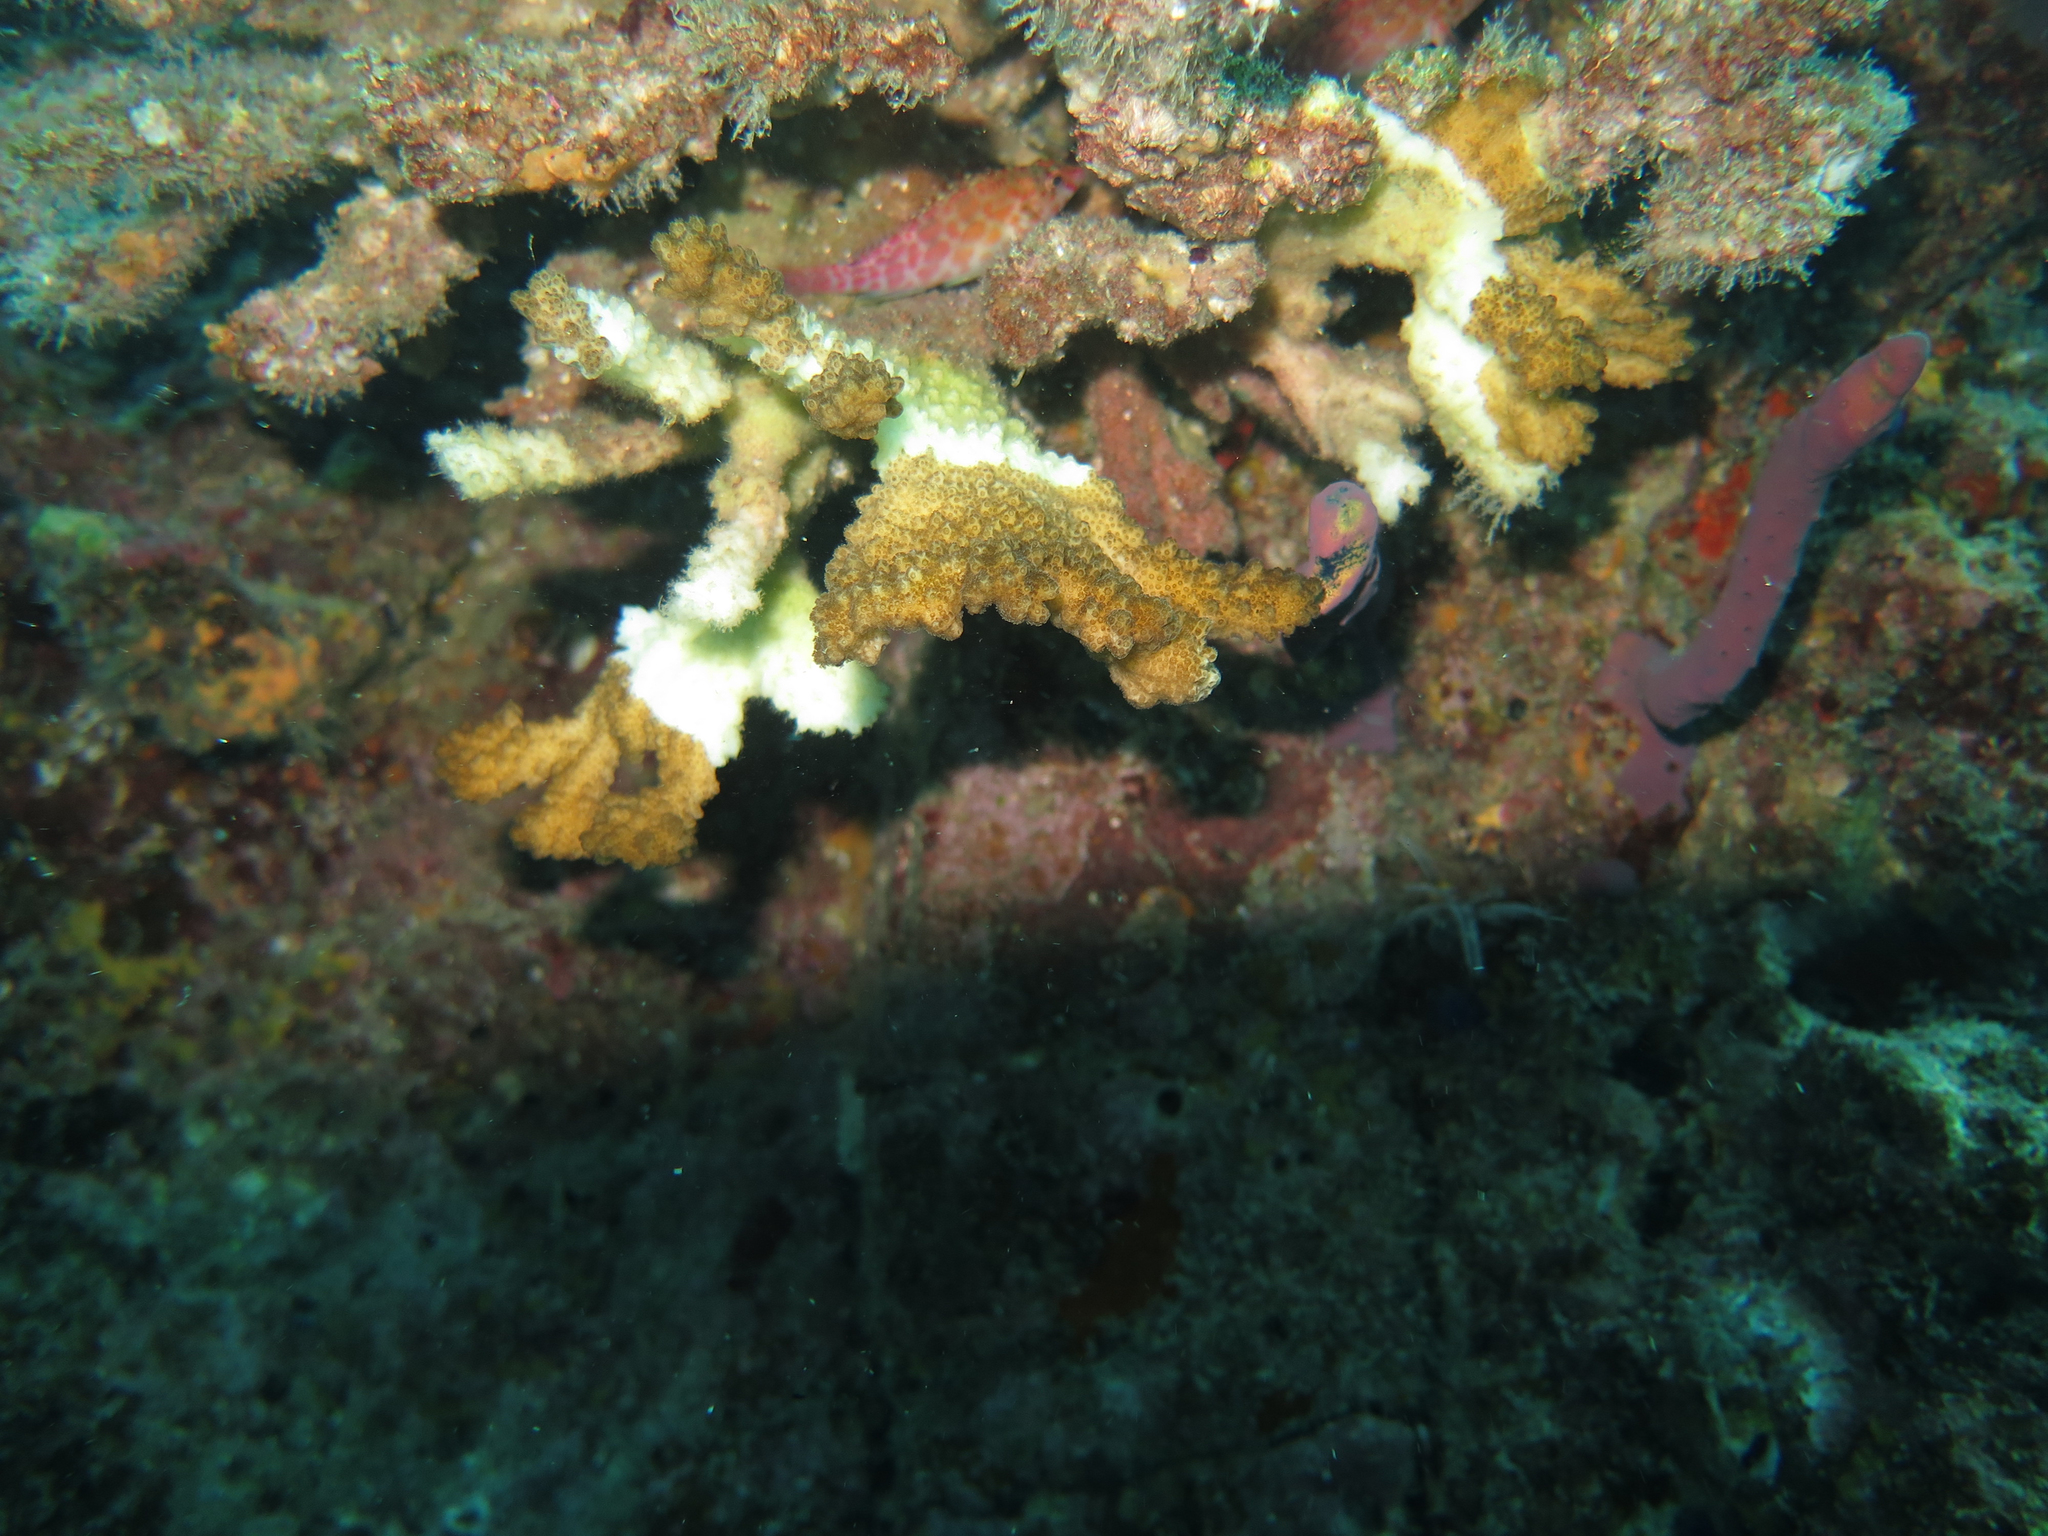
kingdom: Animalia
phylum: Porifera
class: Demospongiae
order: Verongiida
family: Aplysinidae
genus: Aplysina
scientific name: Aplysina chiriquiensis
